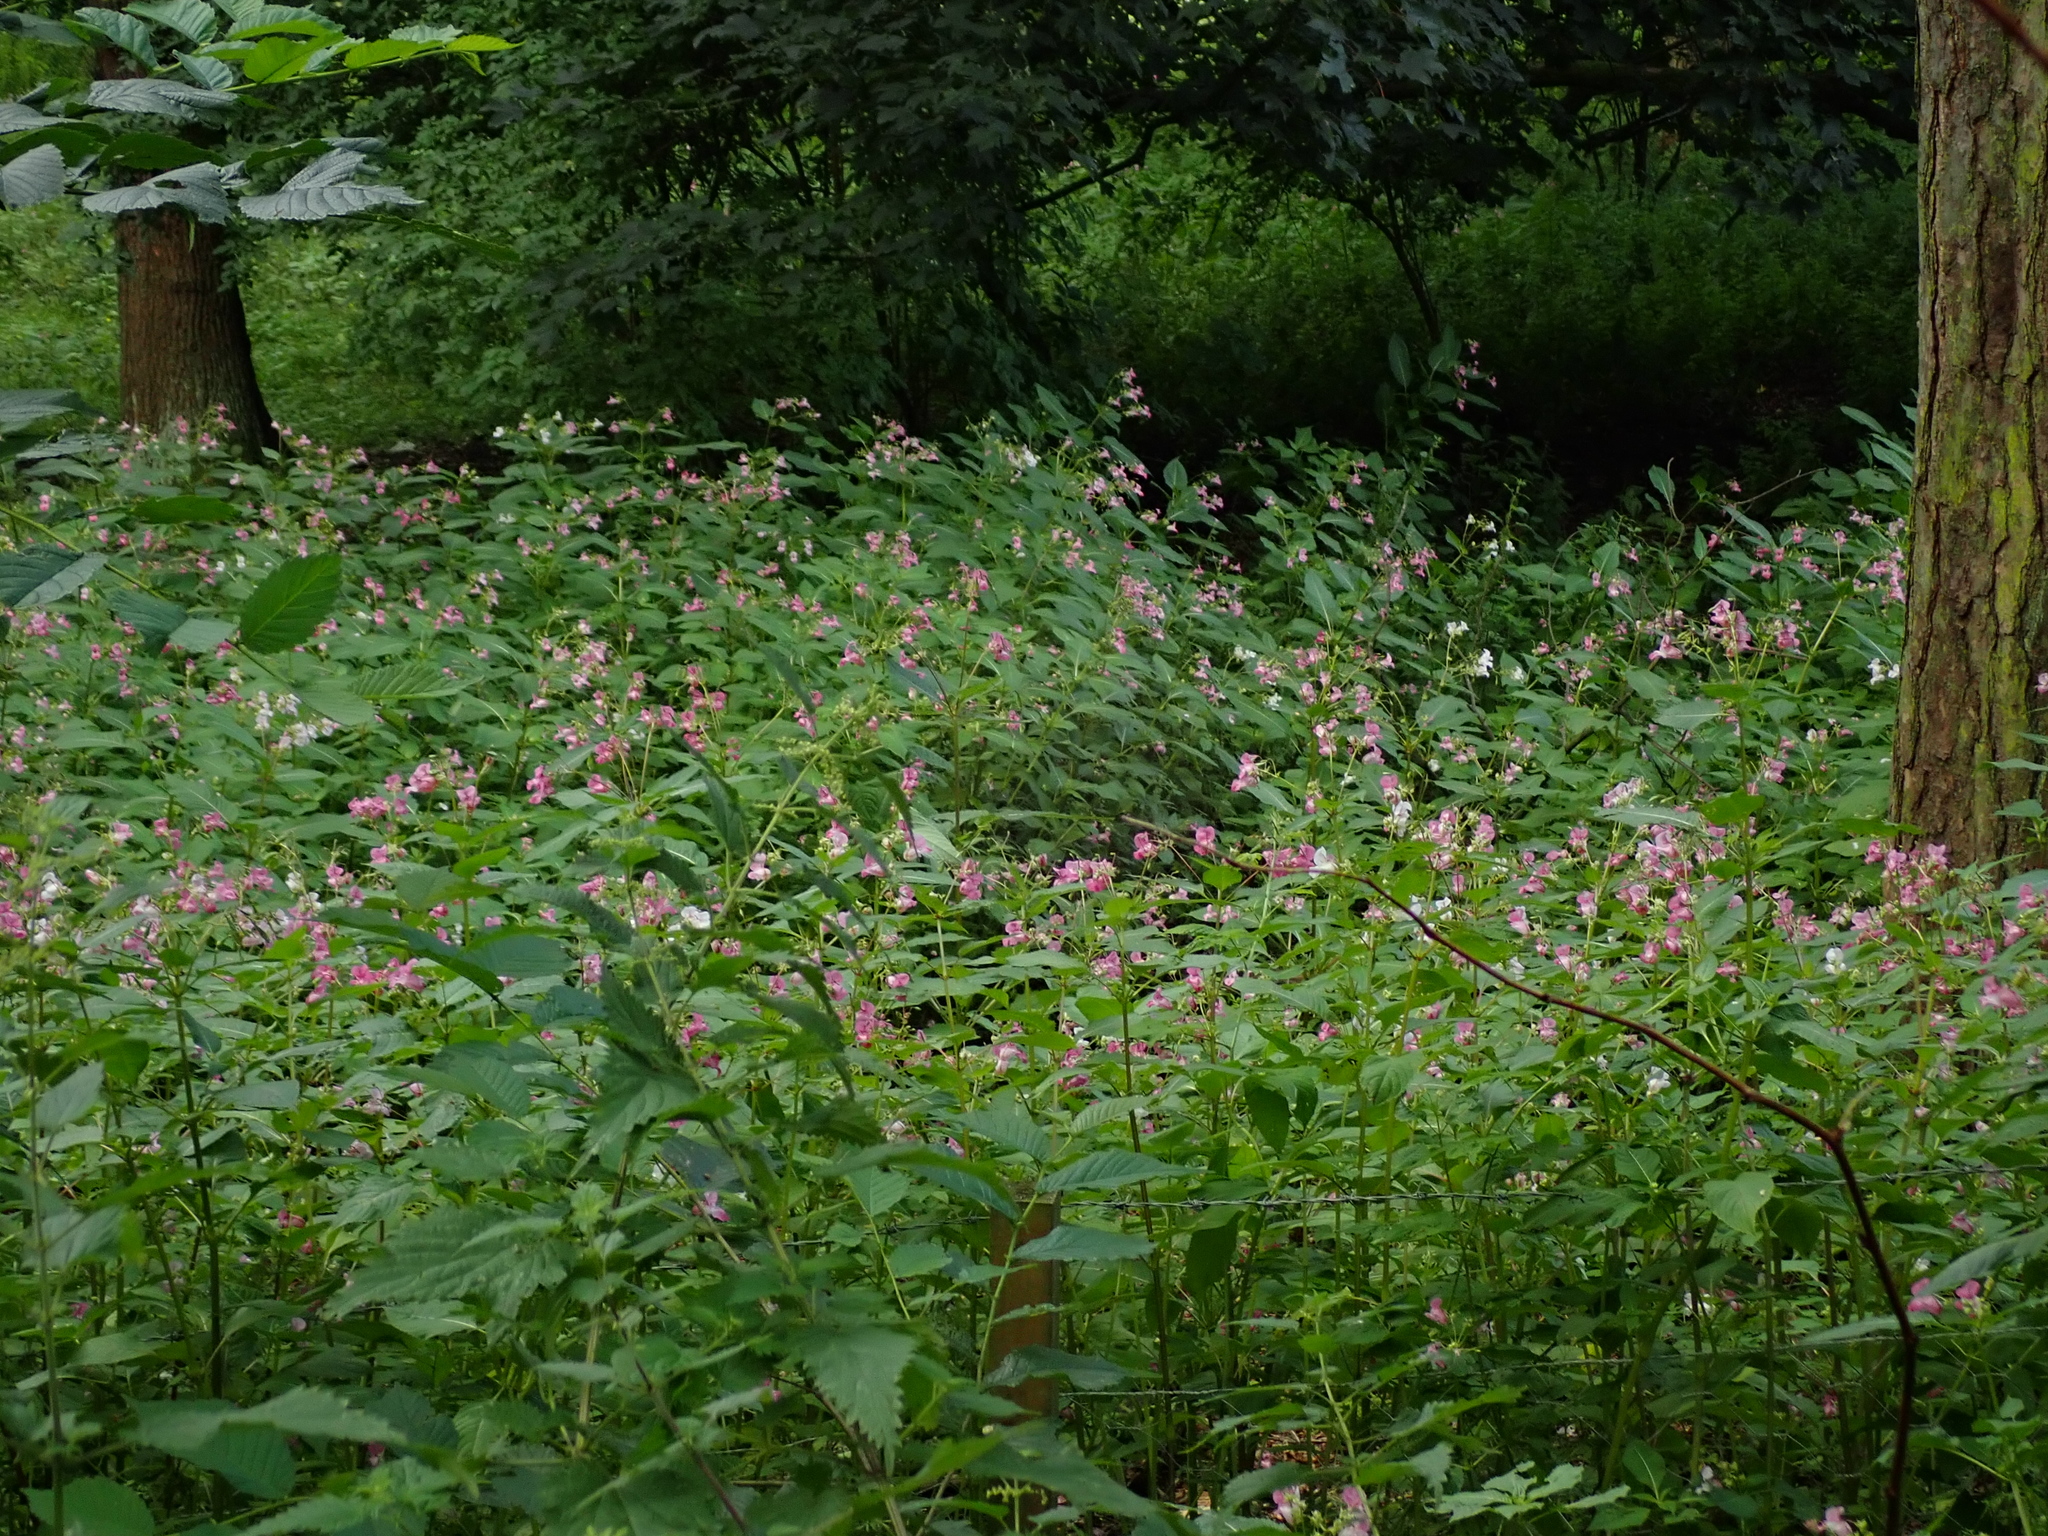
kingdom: Plantae
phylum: Tracheophyta
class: Magnoliopsida
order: Ericales
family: Balsaminaceae
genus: Impatiens
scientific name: Impatiens glandulifera
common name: Himalayan balsam
